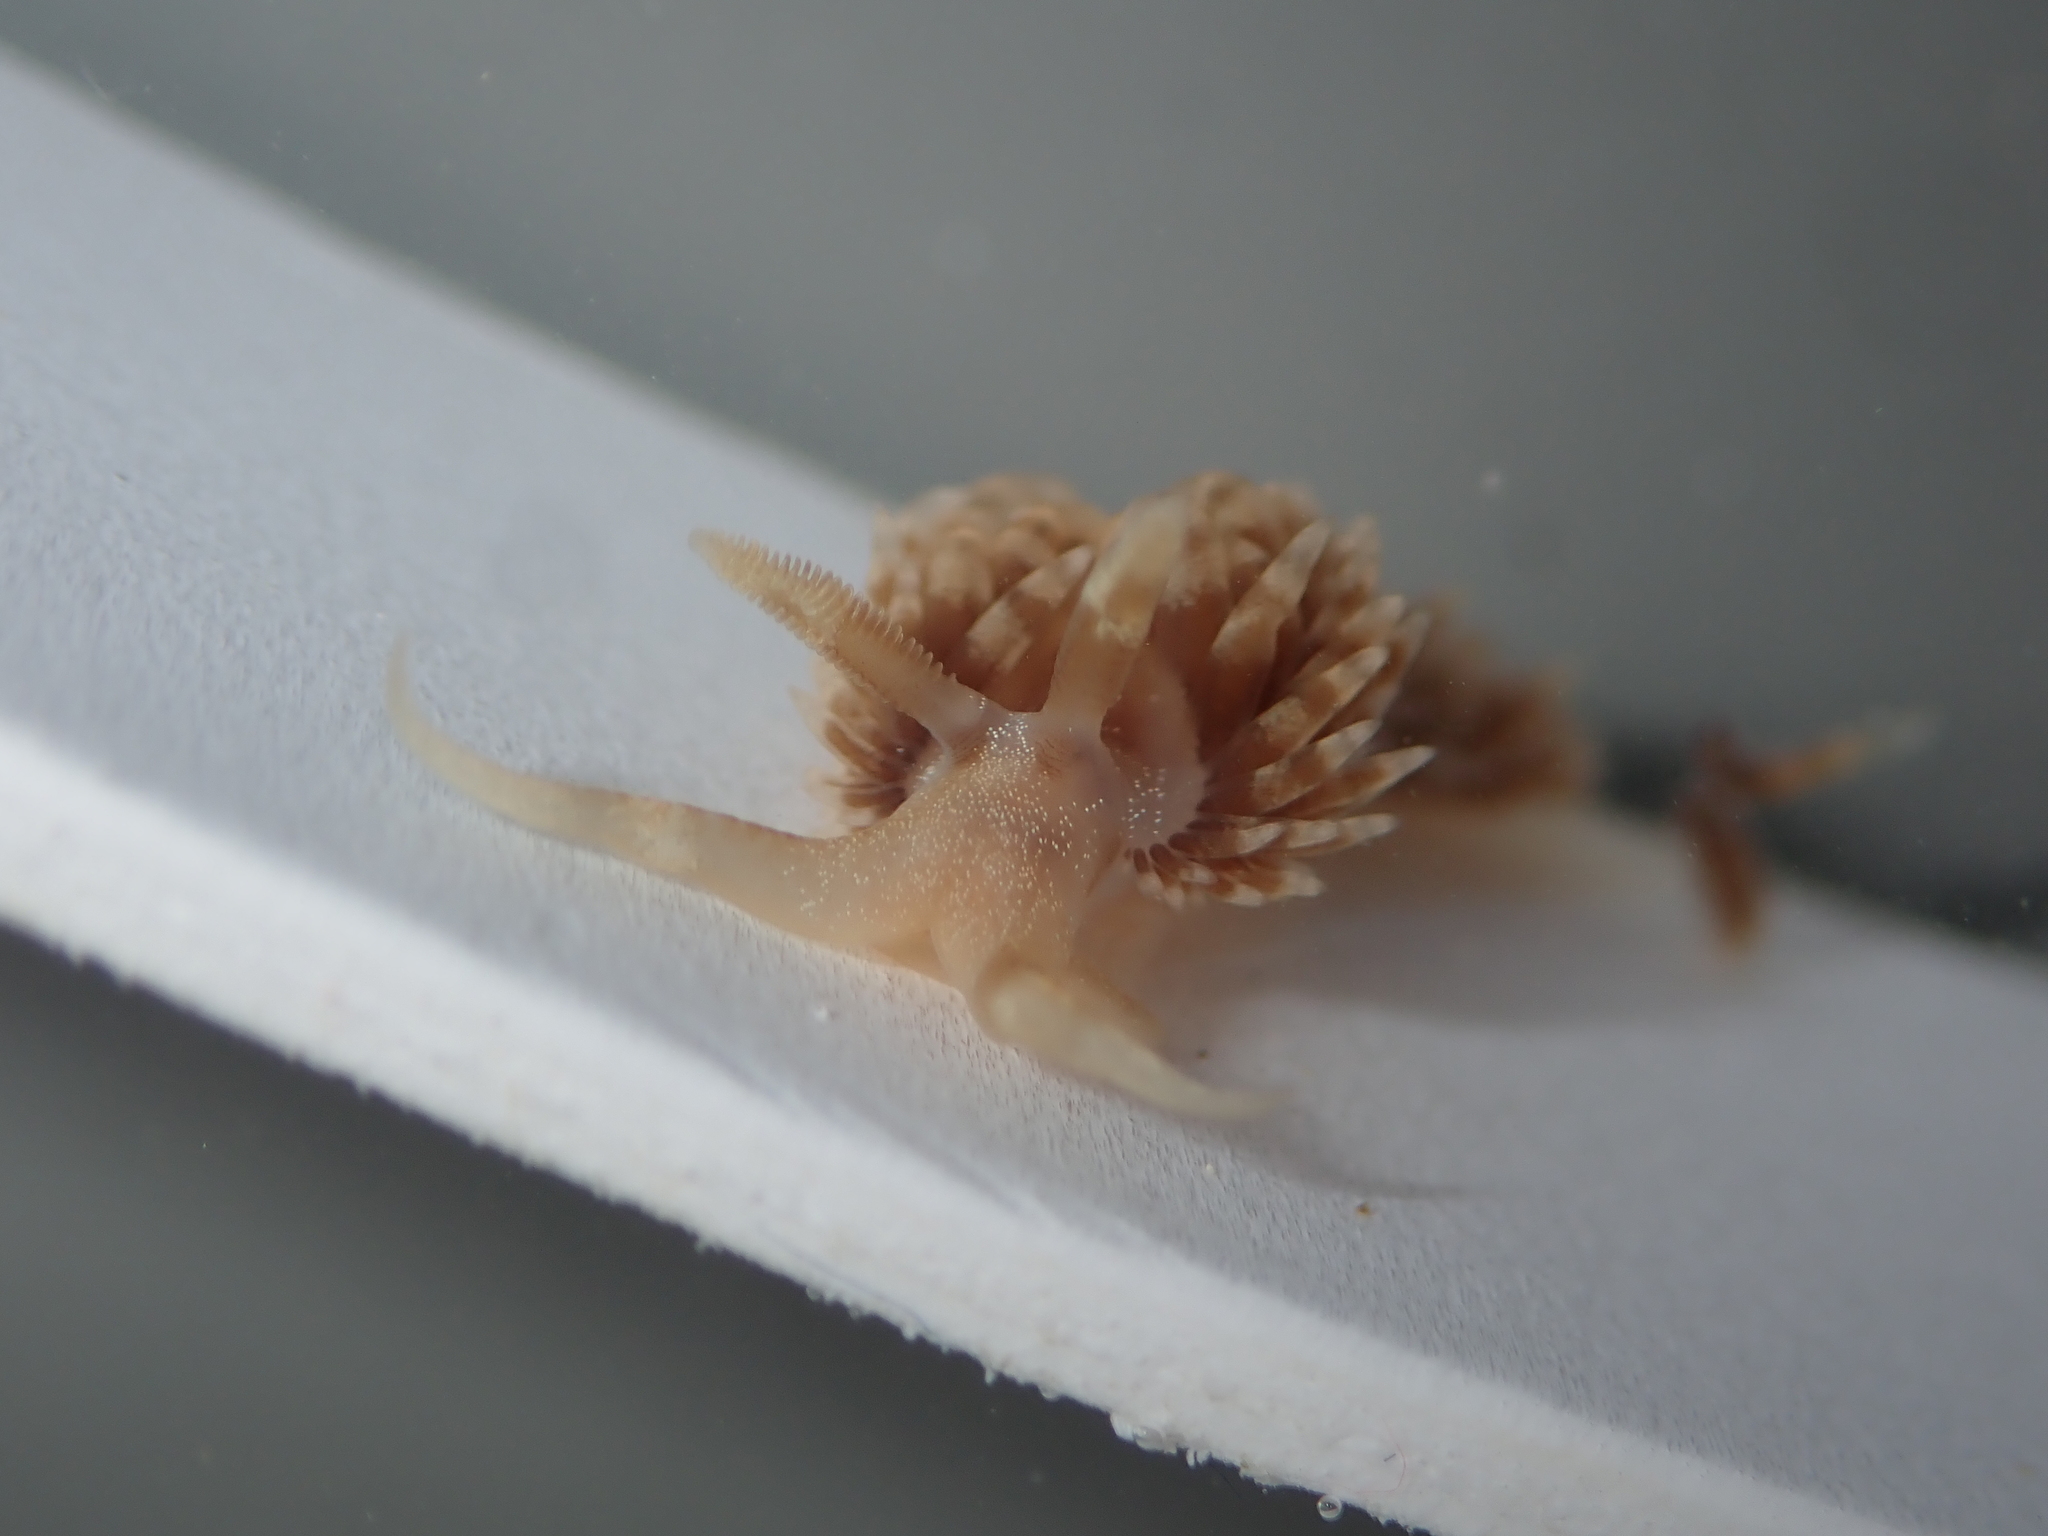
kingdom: Animalia
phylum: Mollusca
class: Gastropoda
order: Nudibranchia
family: Facelinidae
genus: Pruvotfolia
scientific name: Pruvotfolia pselliotes
